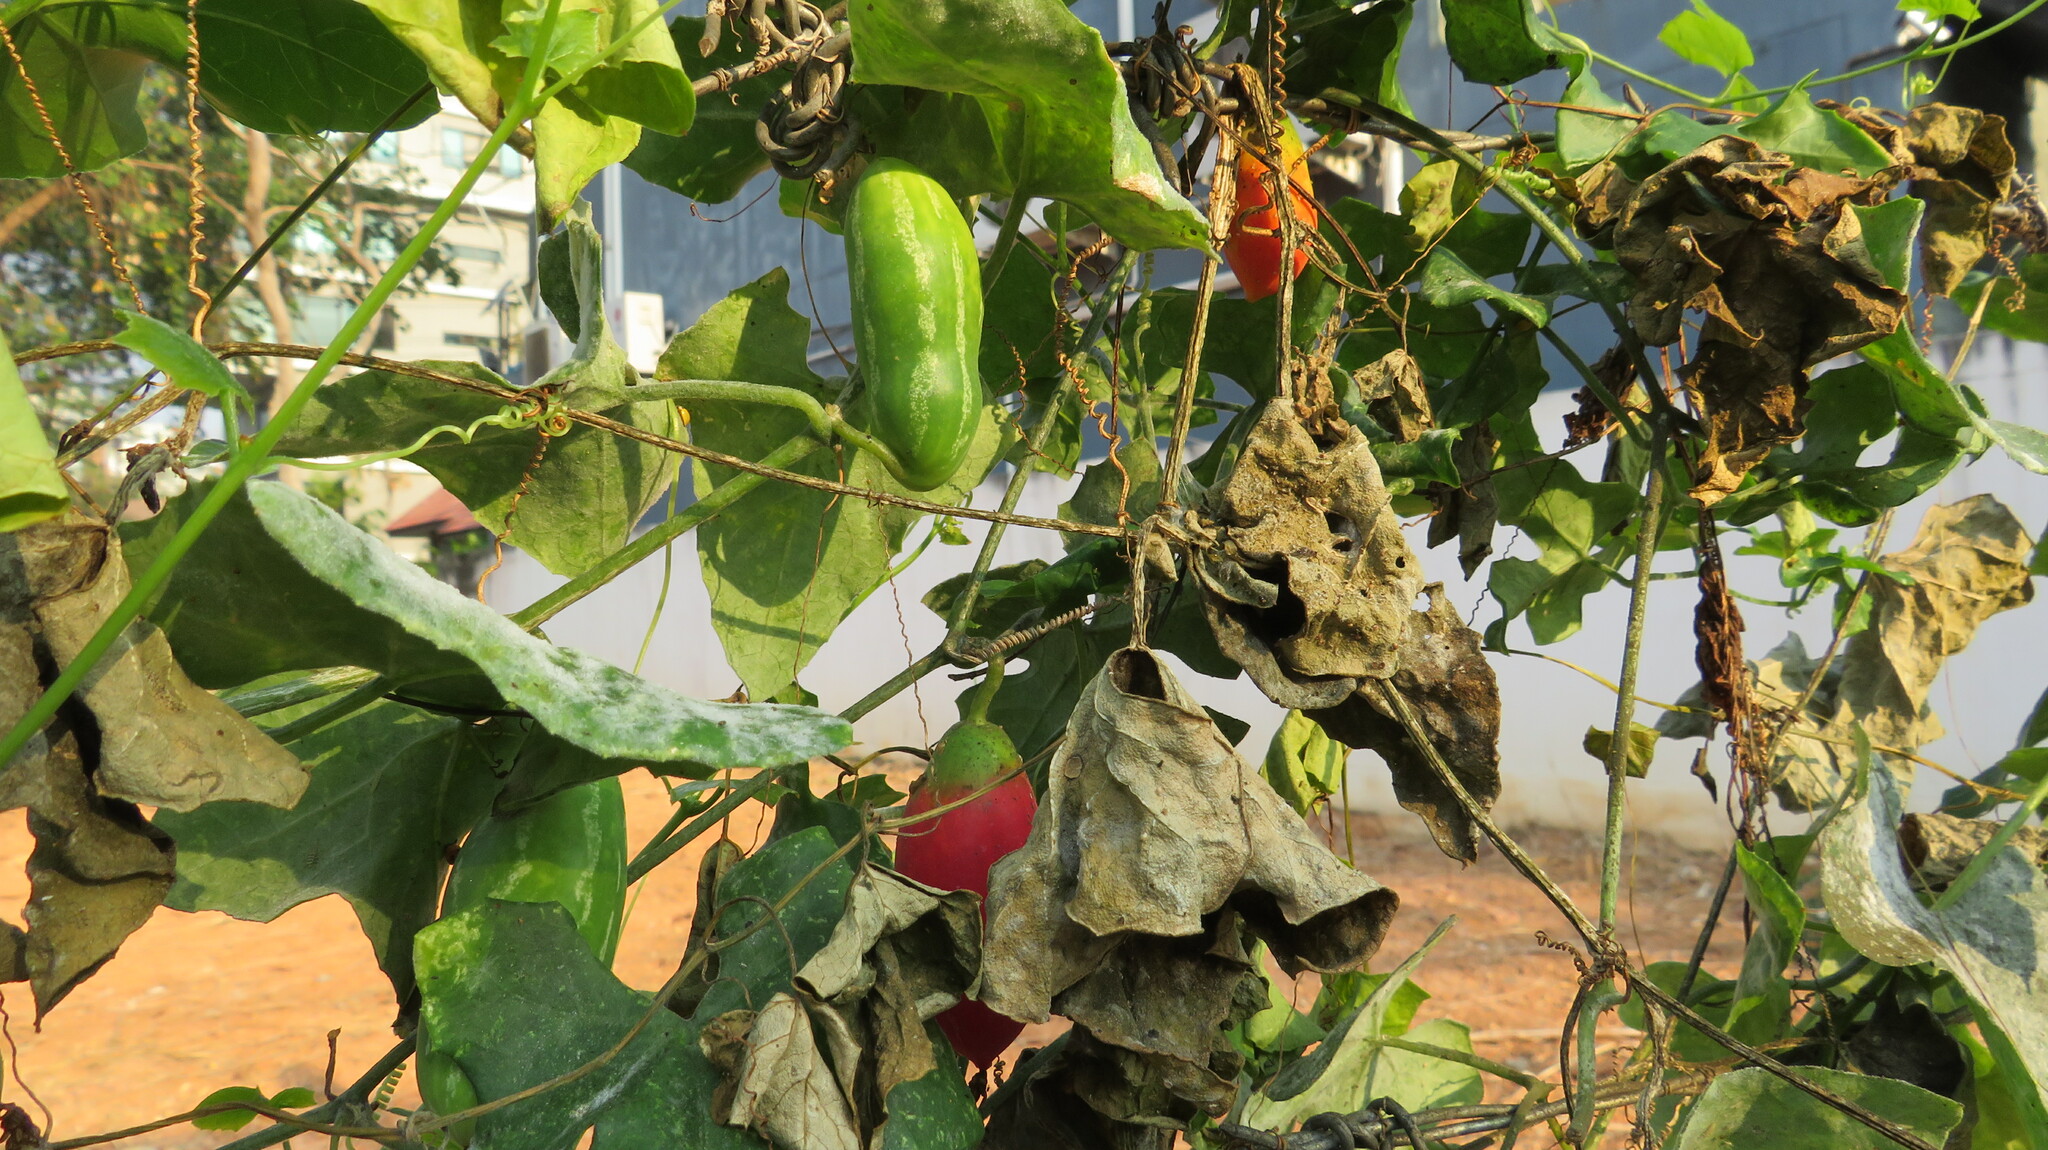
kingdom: Plantae
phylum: Tracheophyta
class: Magnoliopsida
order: Cucurbitales
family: Cucurbitaceae
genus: Coccinia
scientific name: Coccinia grandis
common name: Ivy gourd
